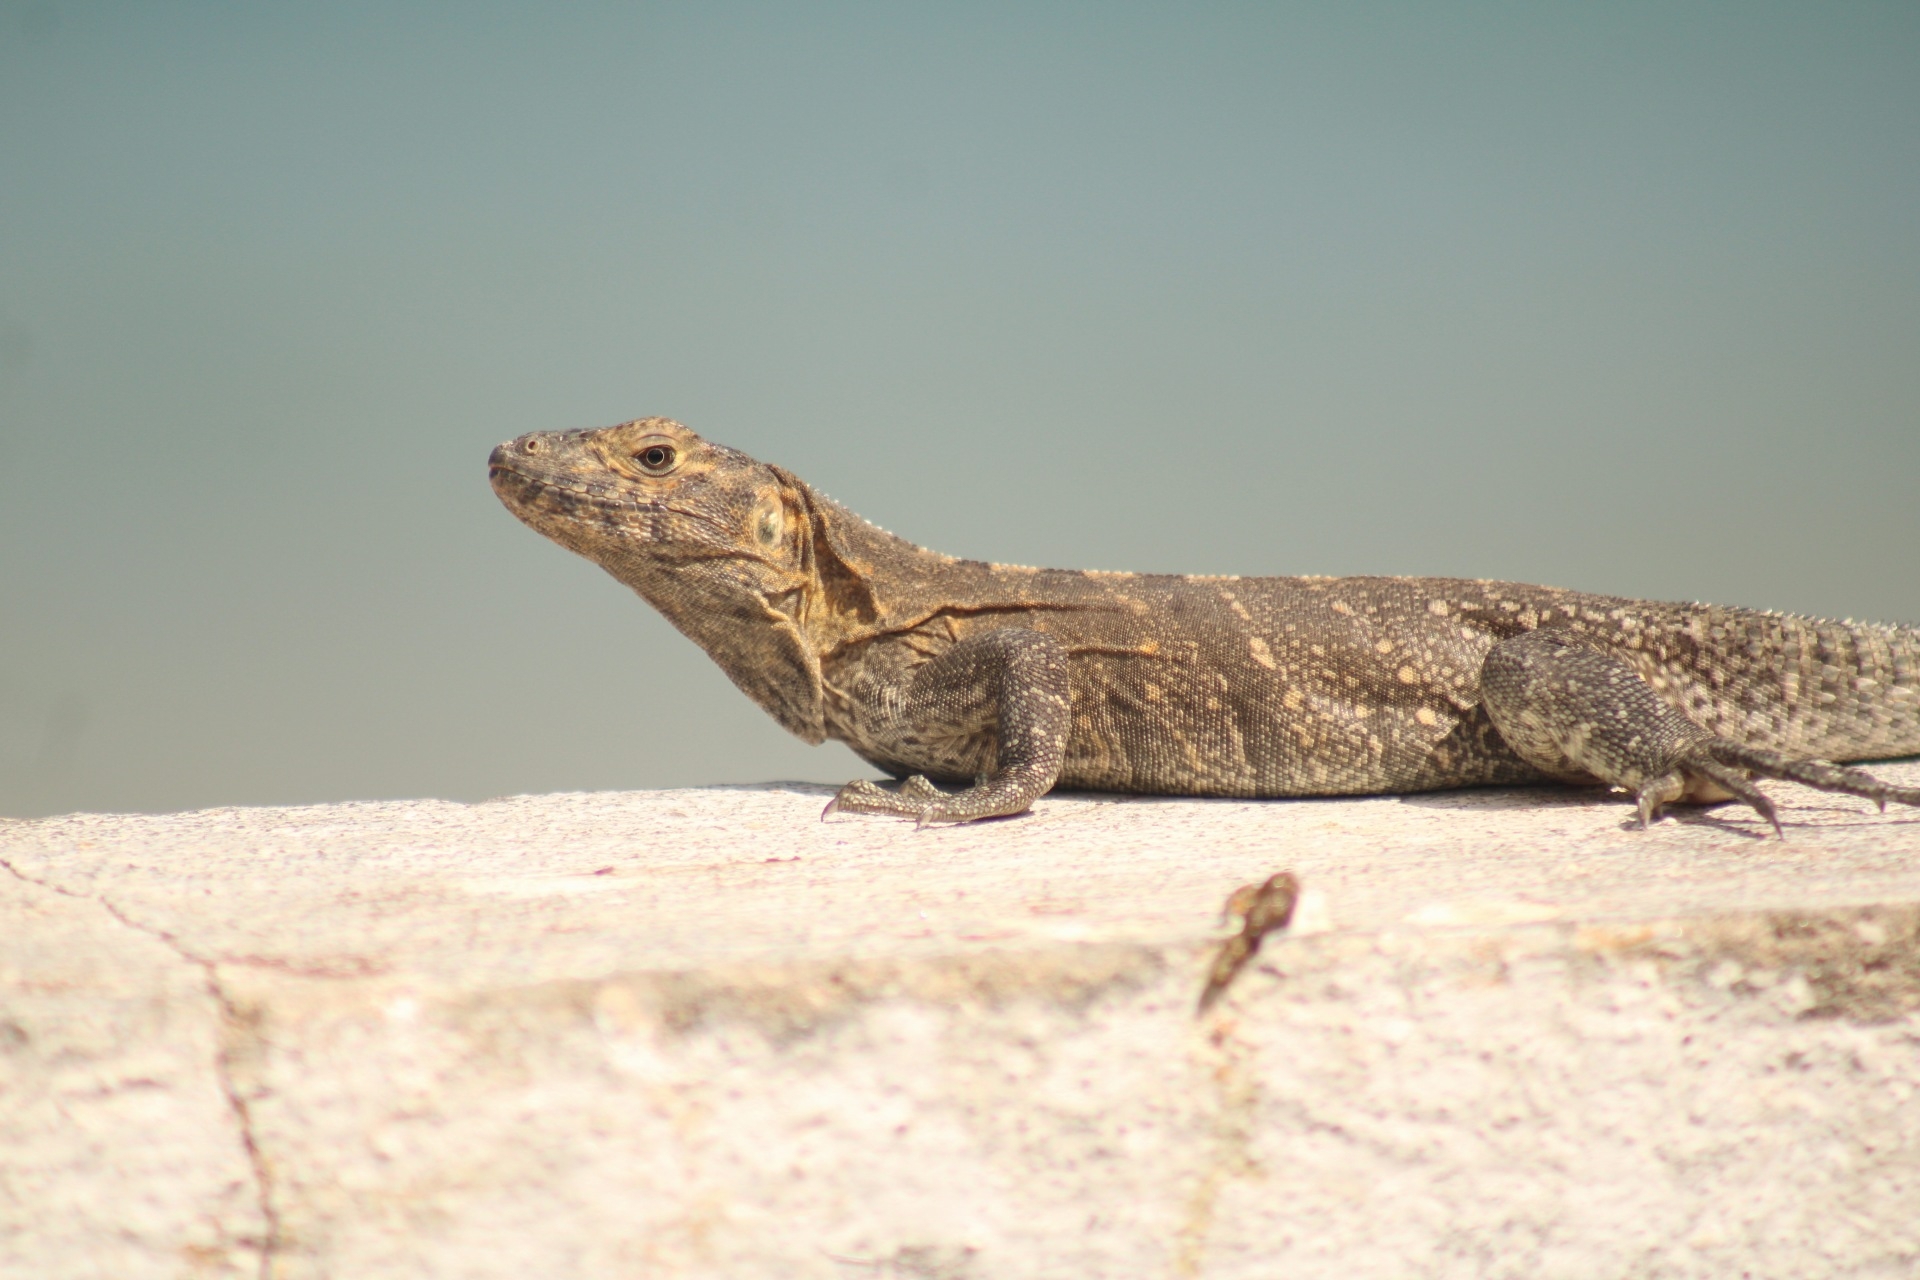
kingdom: Animalia
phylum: Chordata
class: Squamata
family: Iguanidae
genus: Ctenosaura
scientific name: Ctenosaura similis
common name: Black spiny-tailed iguana
